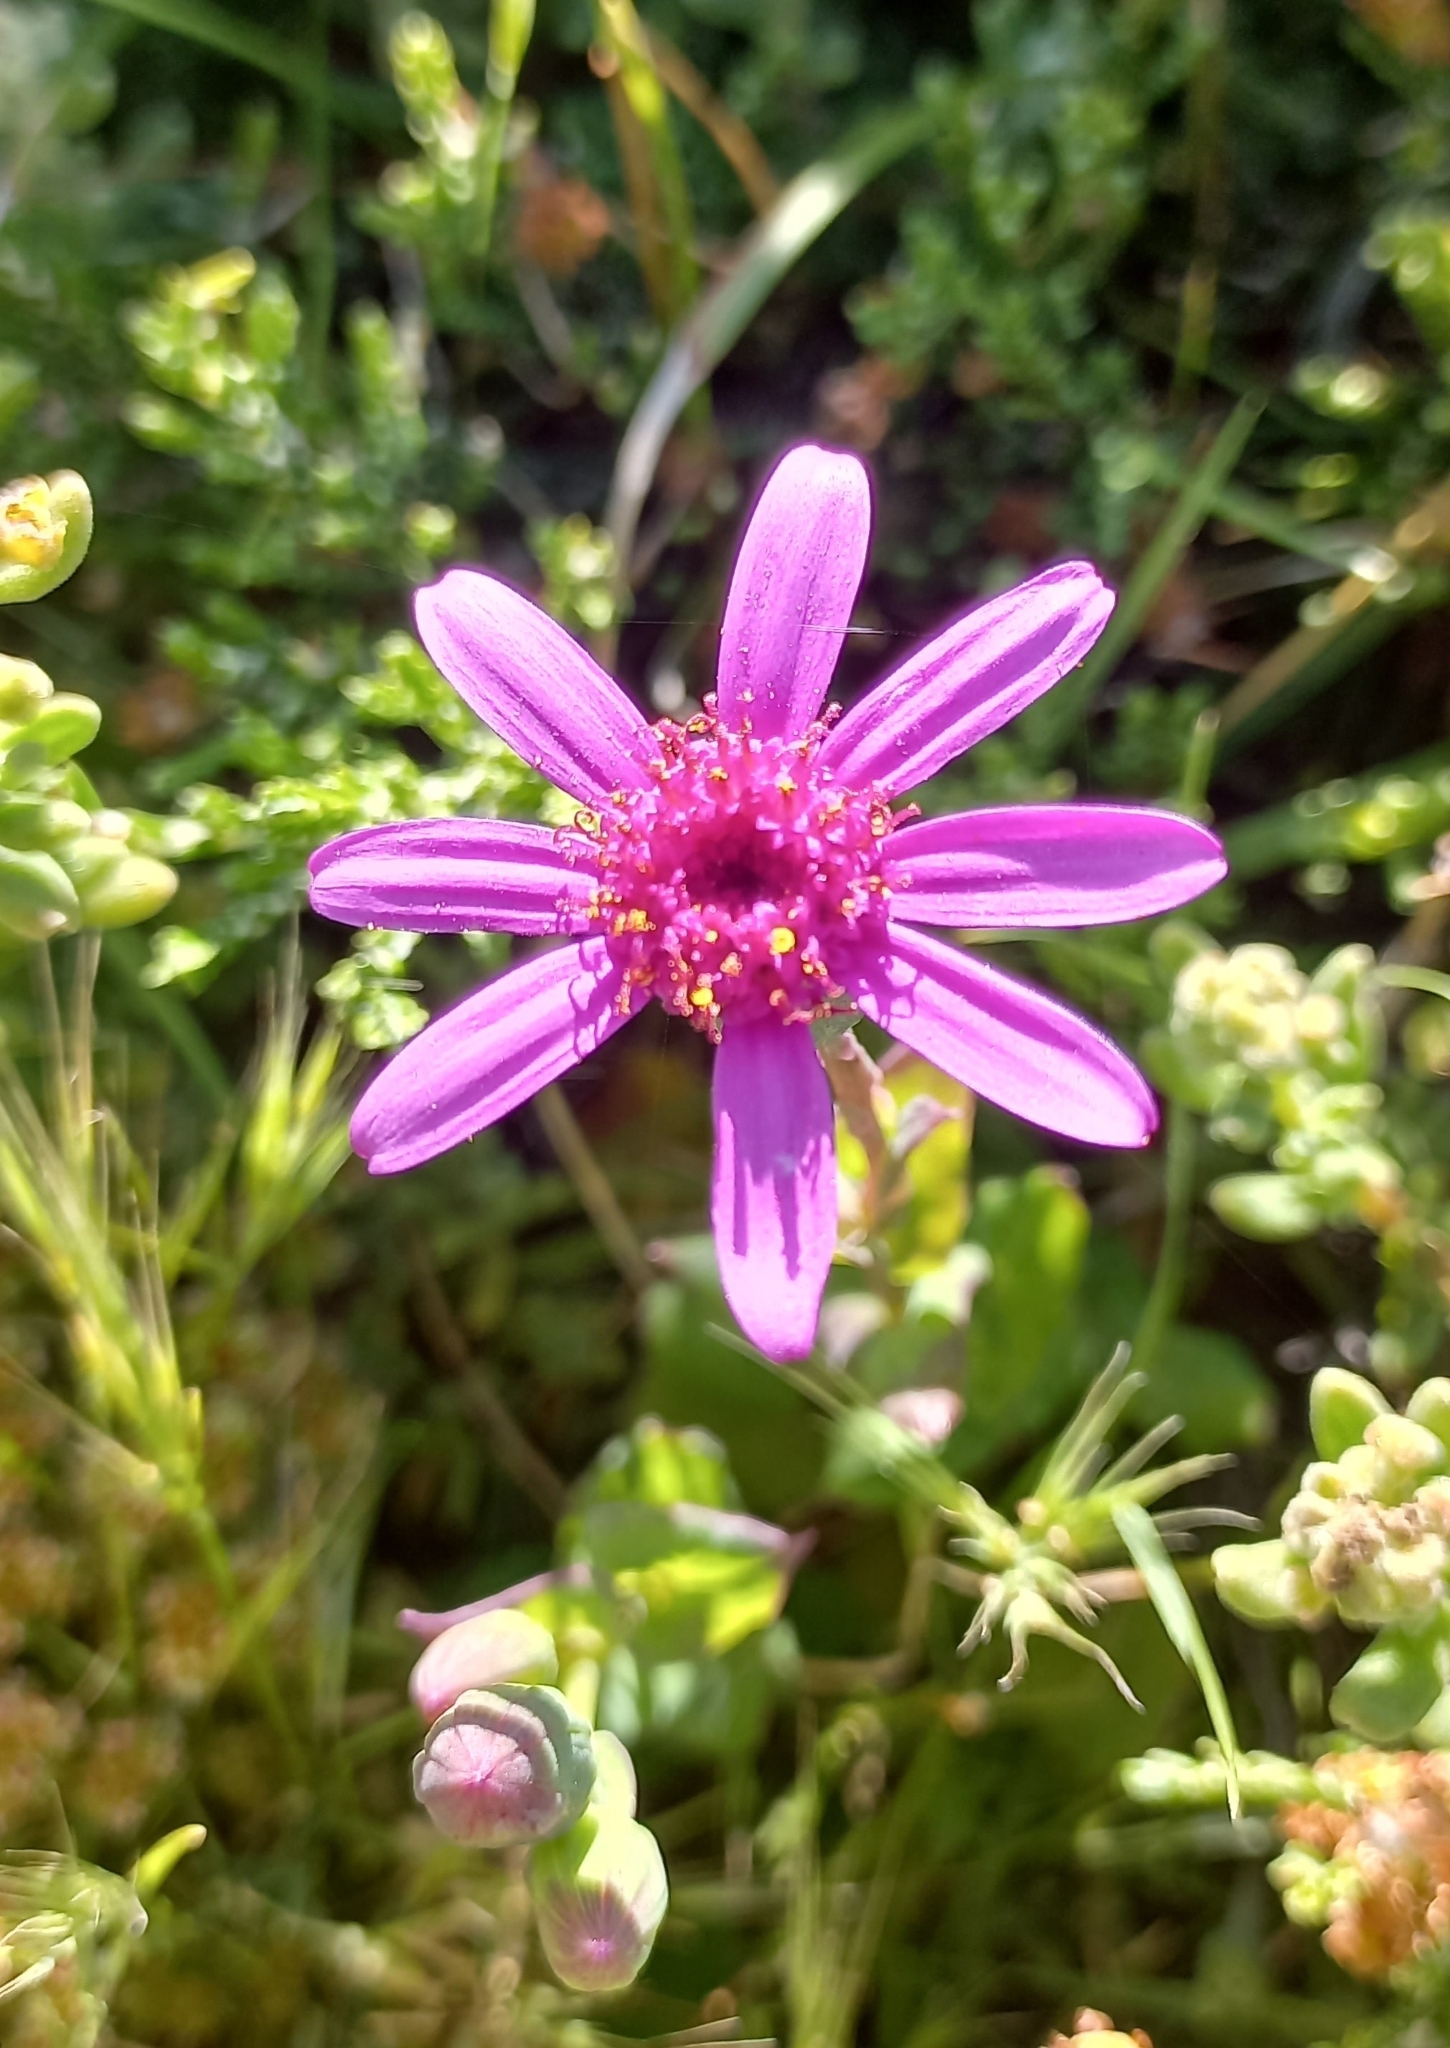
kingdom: Plantae
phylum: Tracheophyta
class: Magnoliopsida
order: Asterales
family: Asteraceae
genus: Senecio
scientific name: Senecio cymbalariifolius
